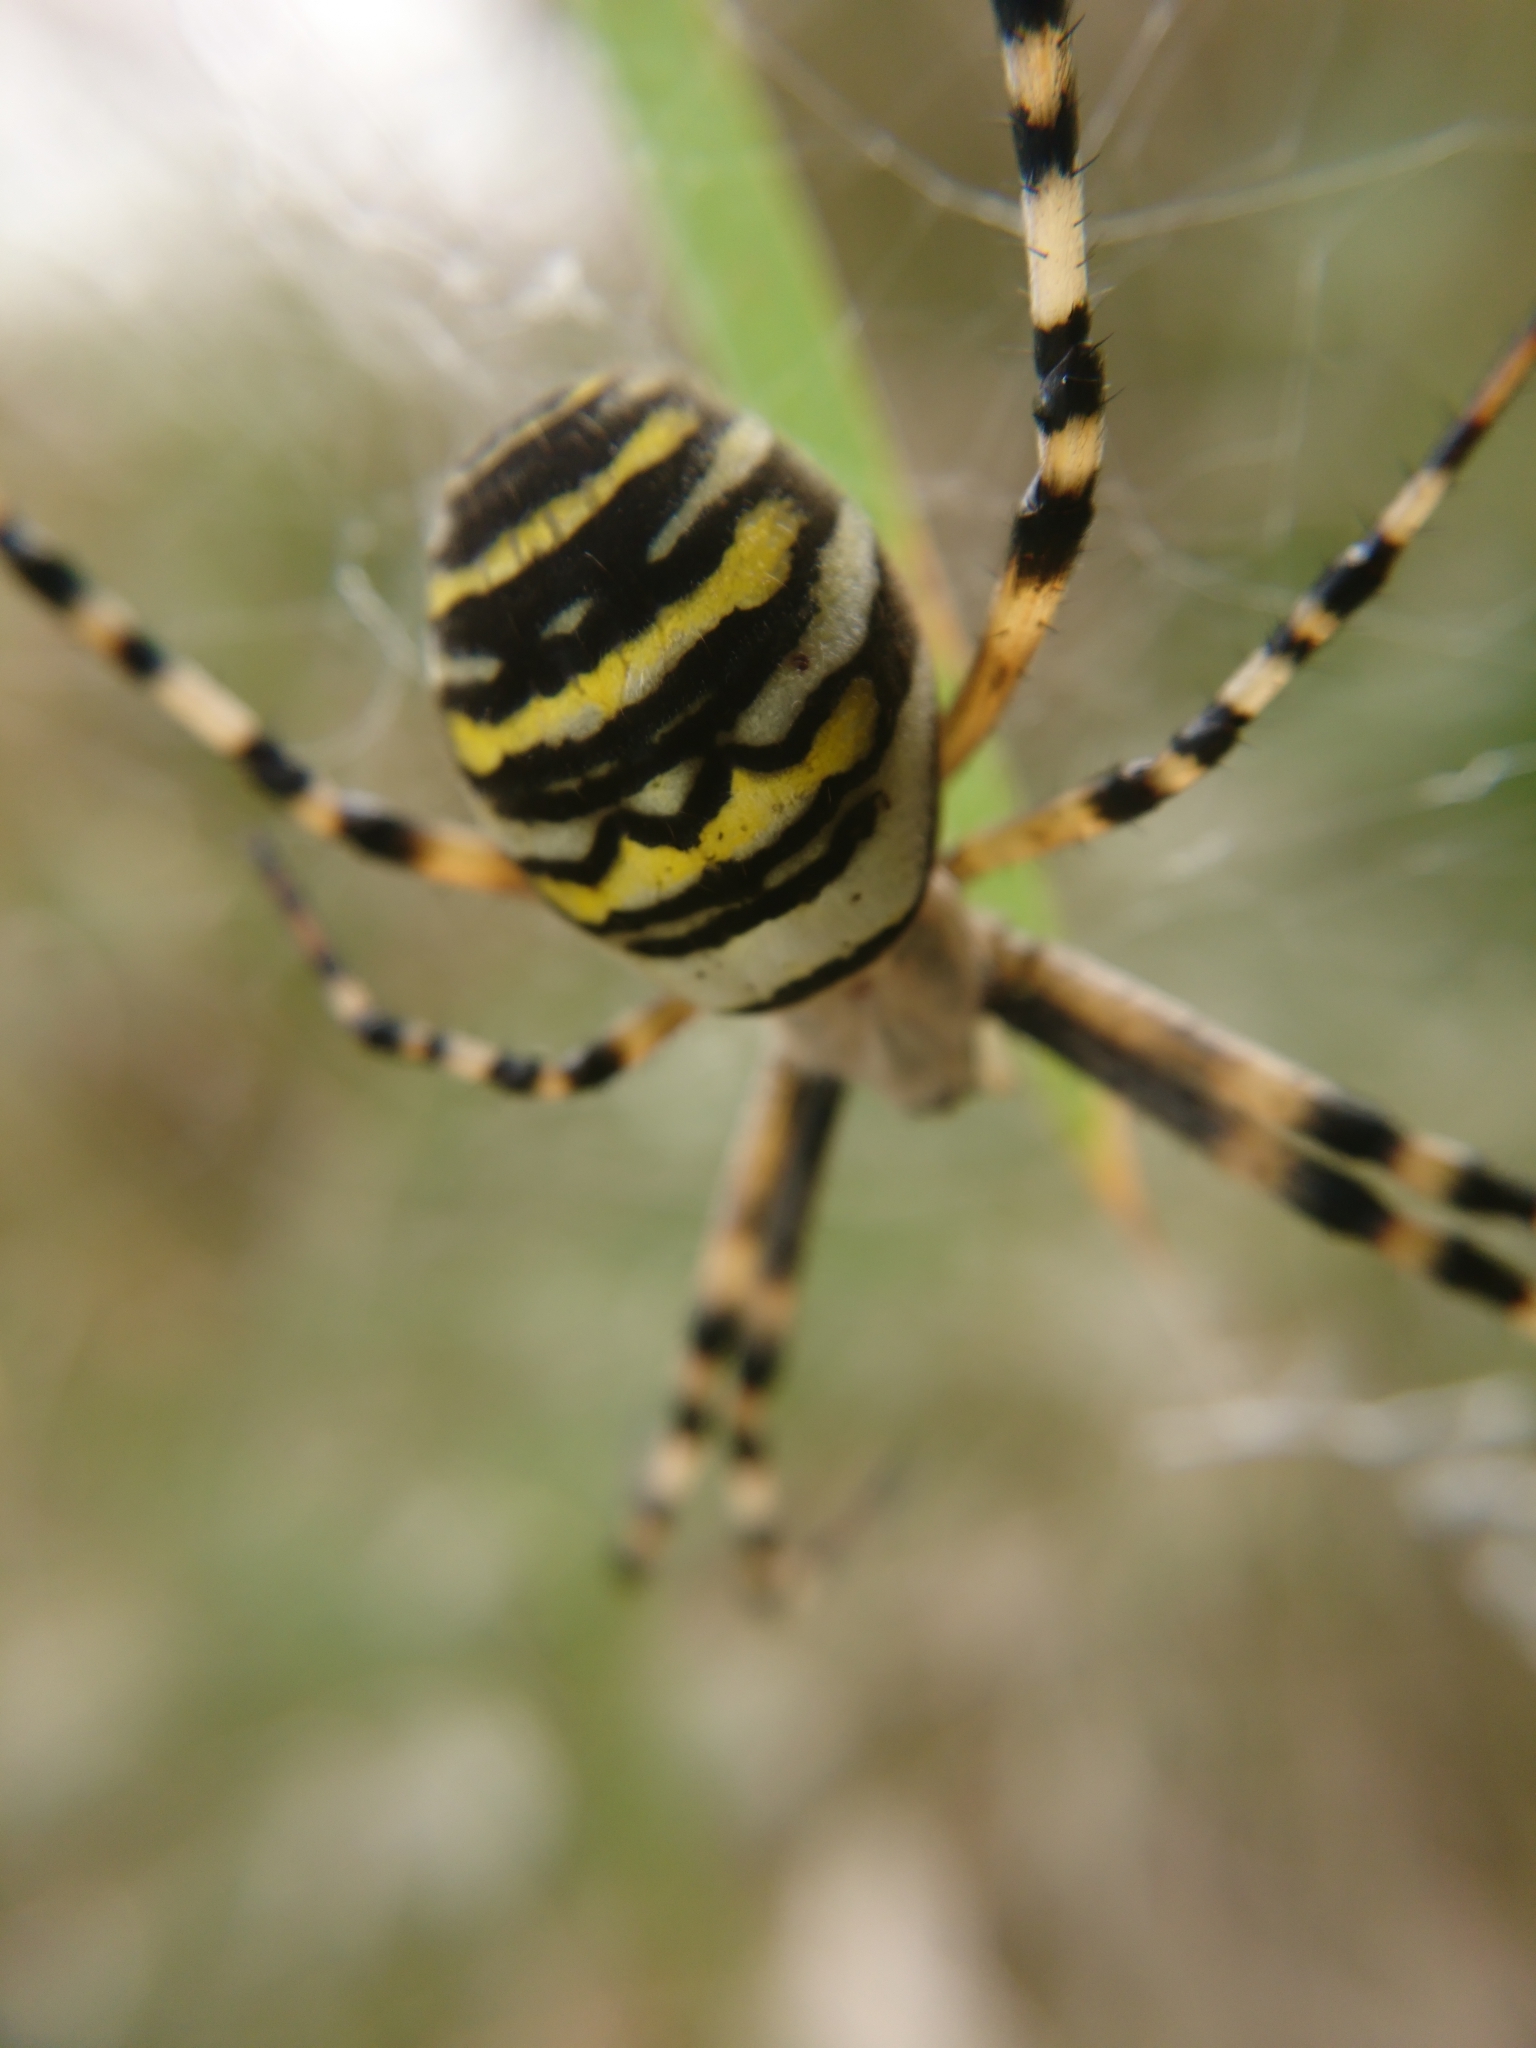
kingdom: Animalia
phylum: Arthropoda
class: Arachnida
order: Araneae
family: Araneidae
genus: Argiope
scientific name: Argiope bruennichi
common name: Wasp spider
